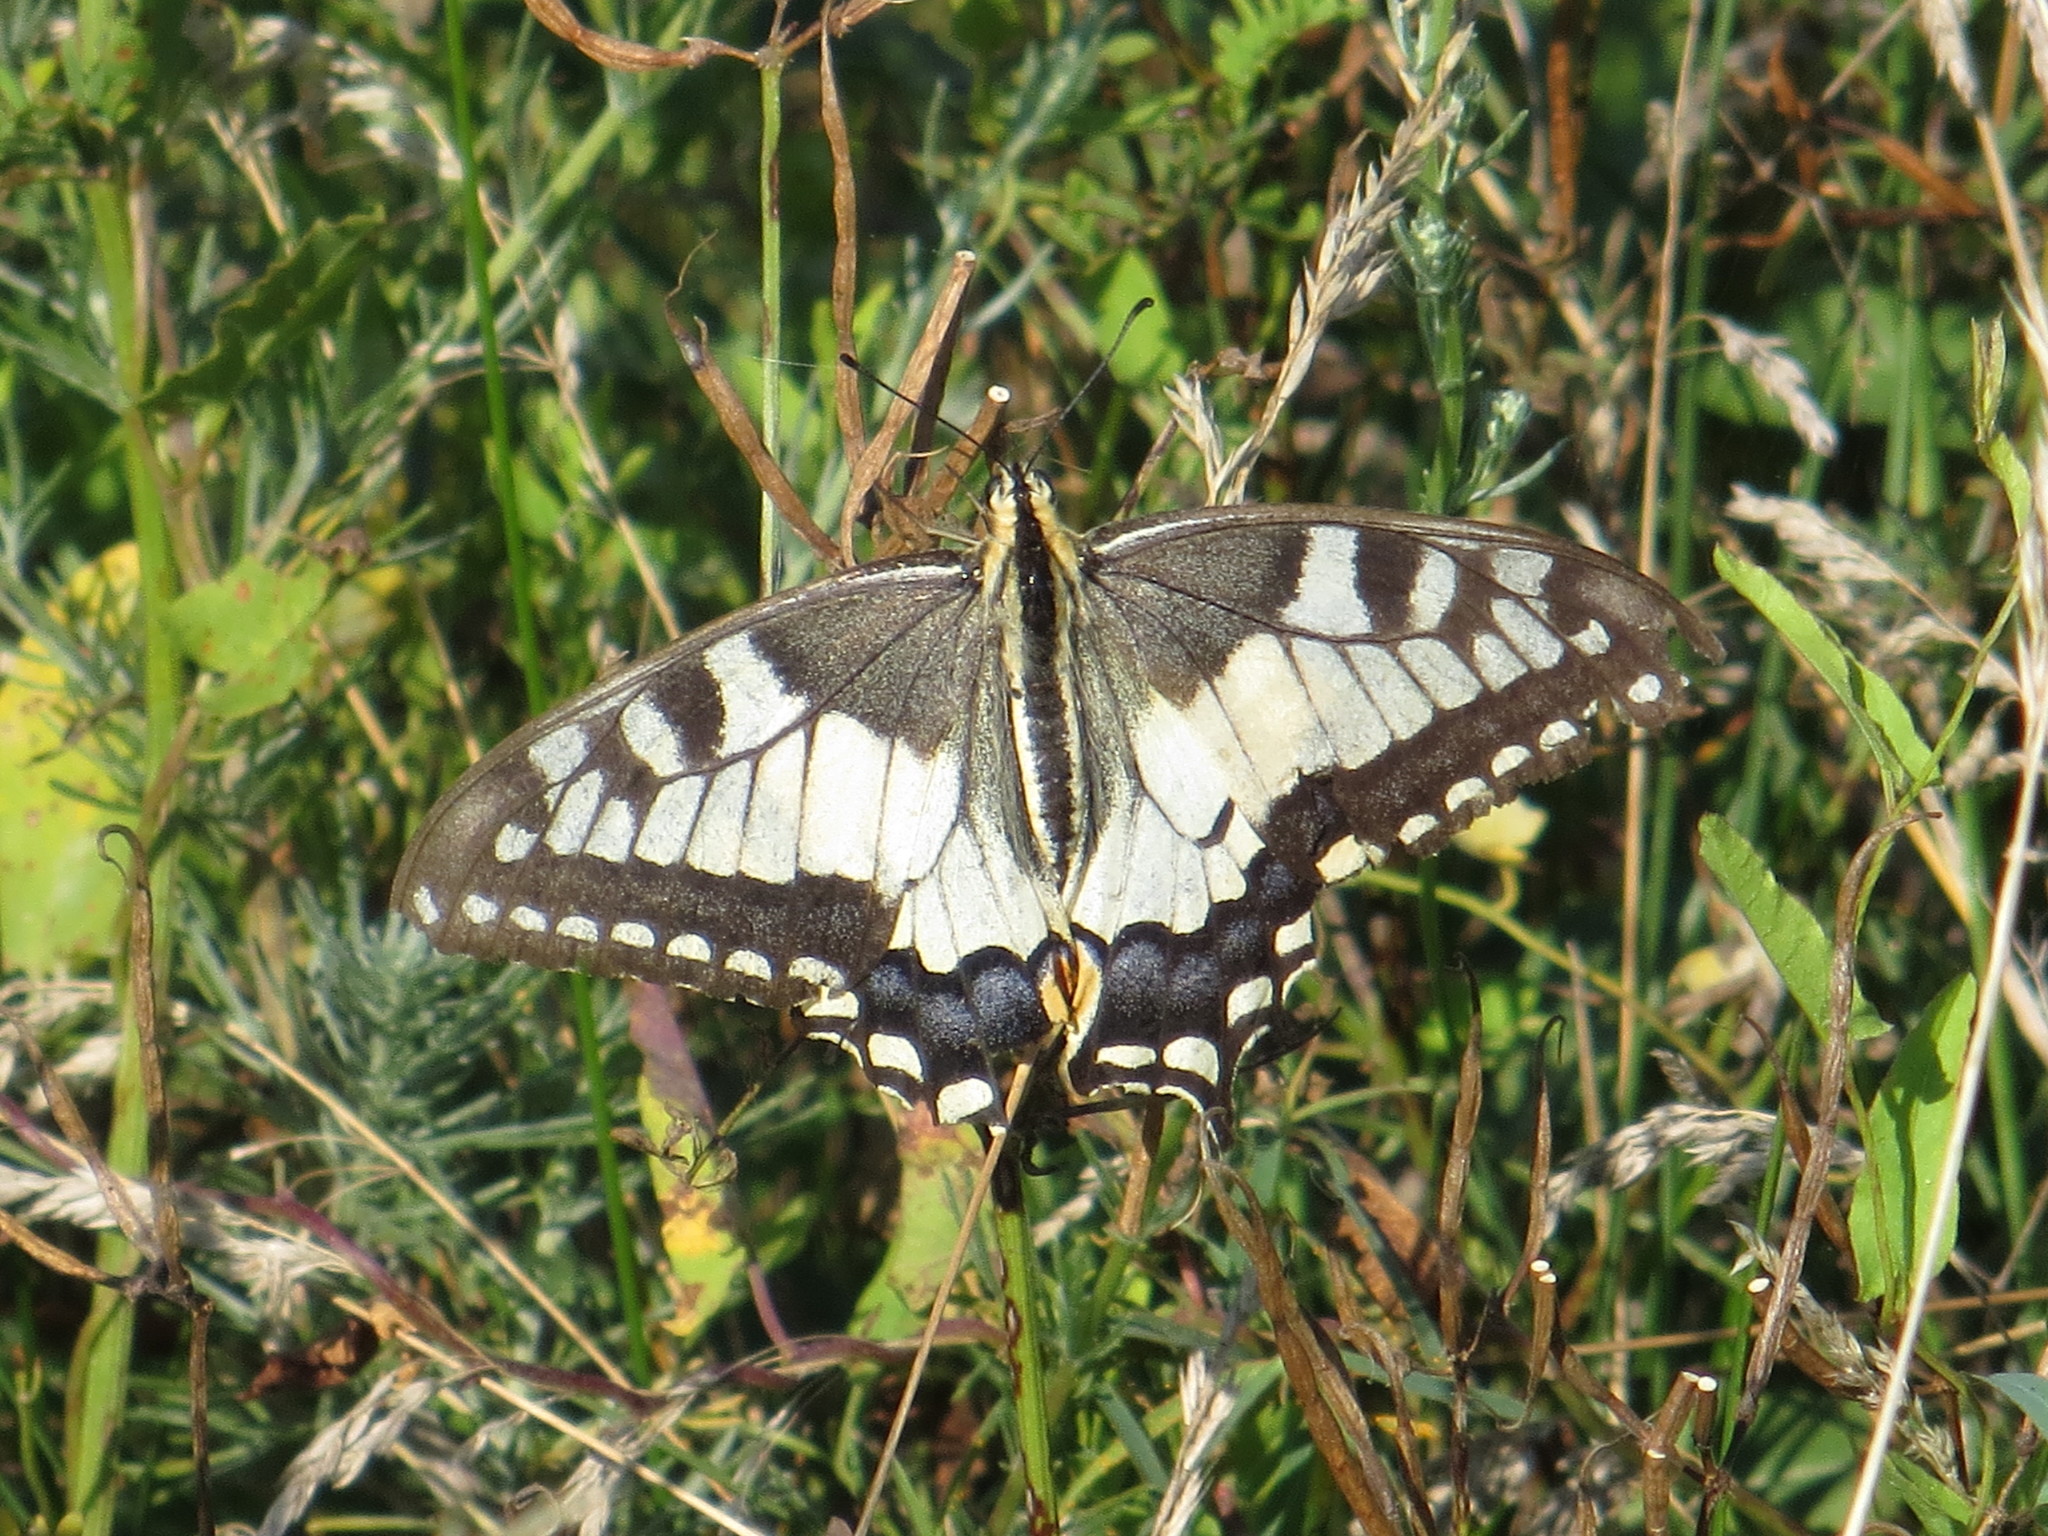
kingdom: Animalia
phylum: Arthropoda
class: Insecta
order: Lepidoptera
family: Papilionidae
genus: Papilio
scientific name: Papilio machaon
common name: Swallowtail
